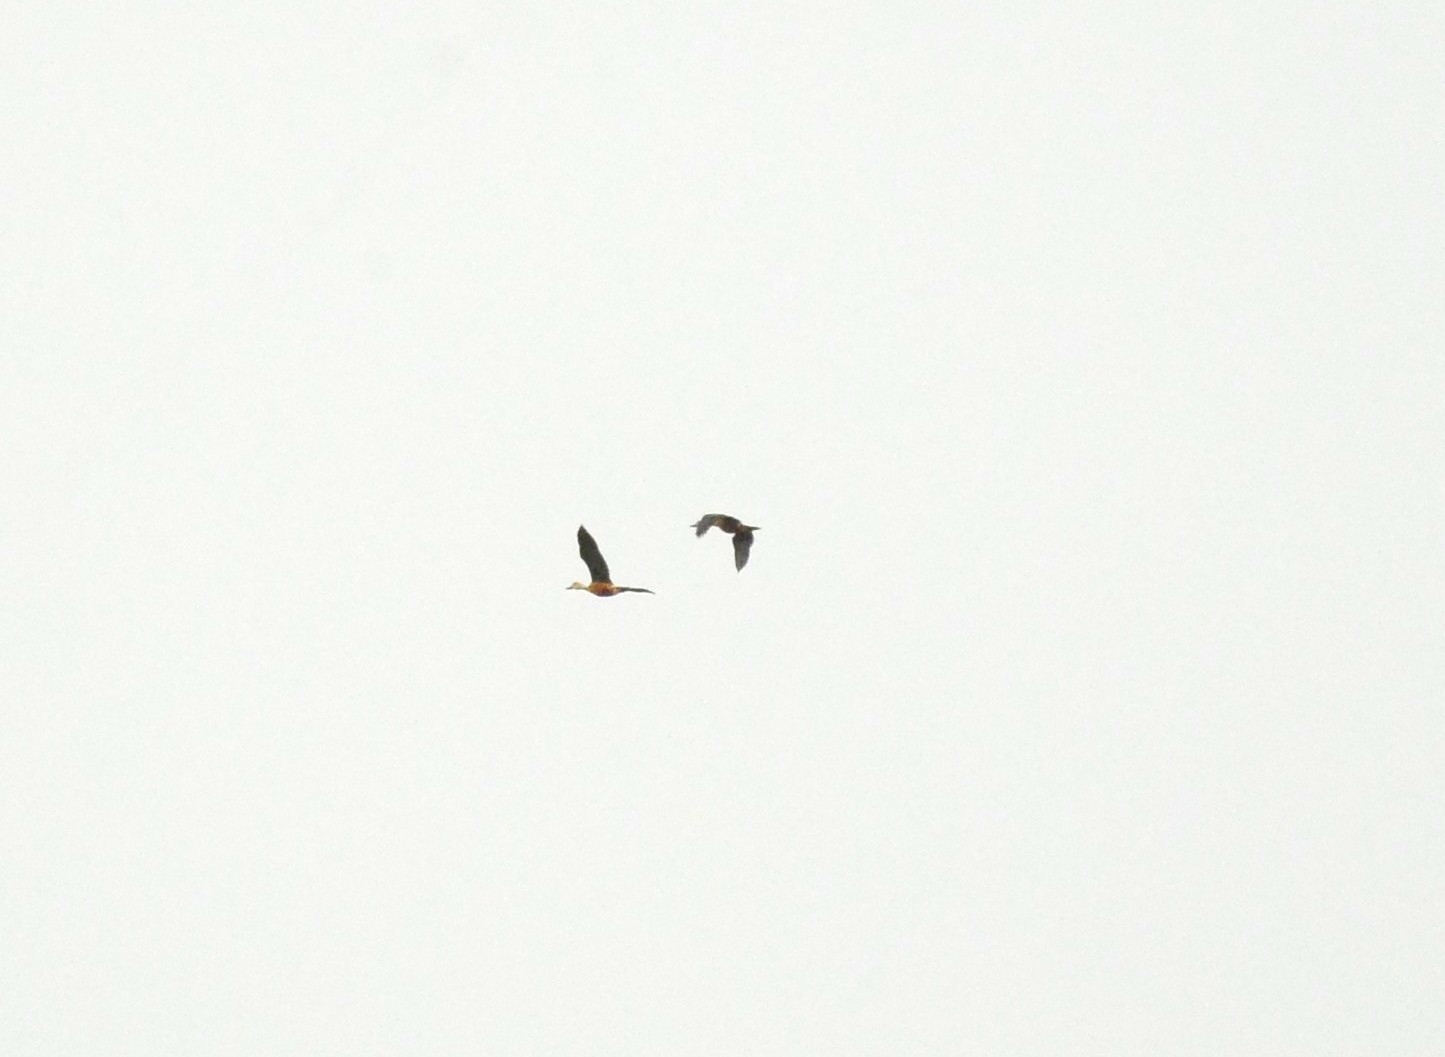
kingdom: Animalia
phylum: Chordata
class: Aves
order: Anseriformes
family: Anatidae
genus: Dendrocygna
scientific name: Dendrocygna javanica
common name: Lesser whistling-duck
